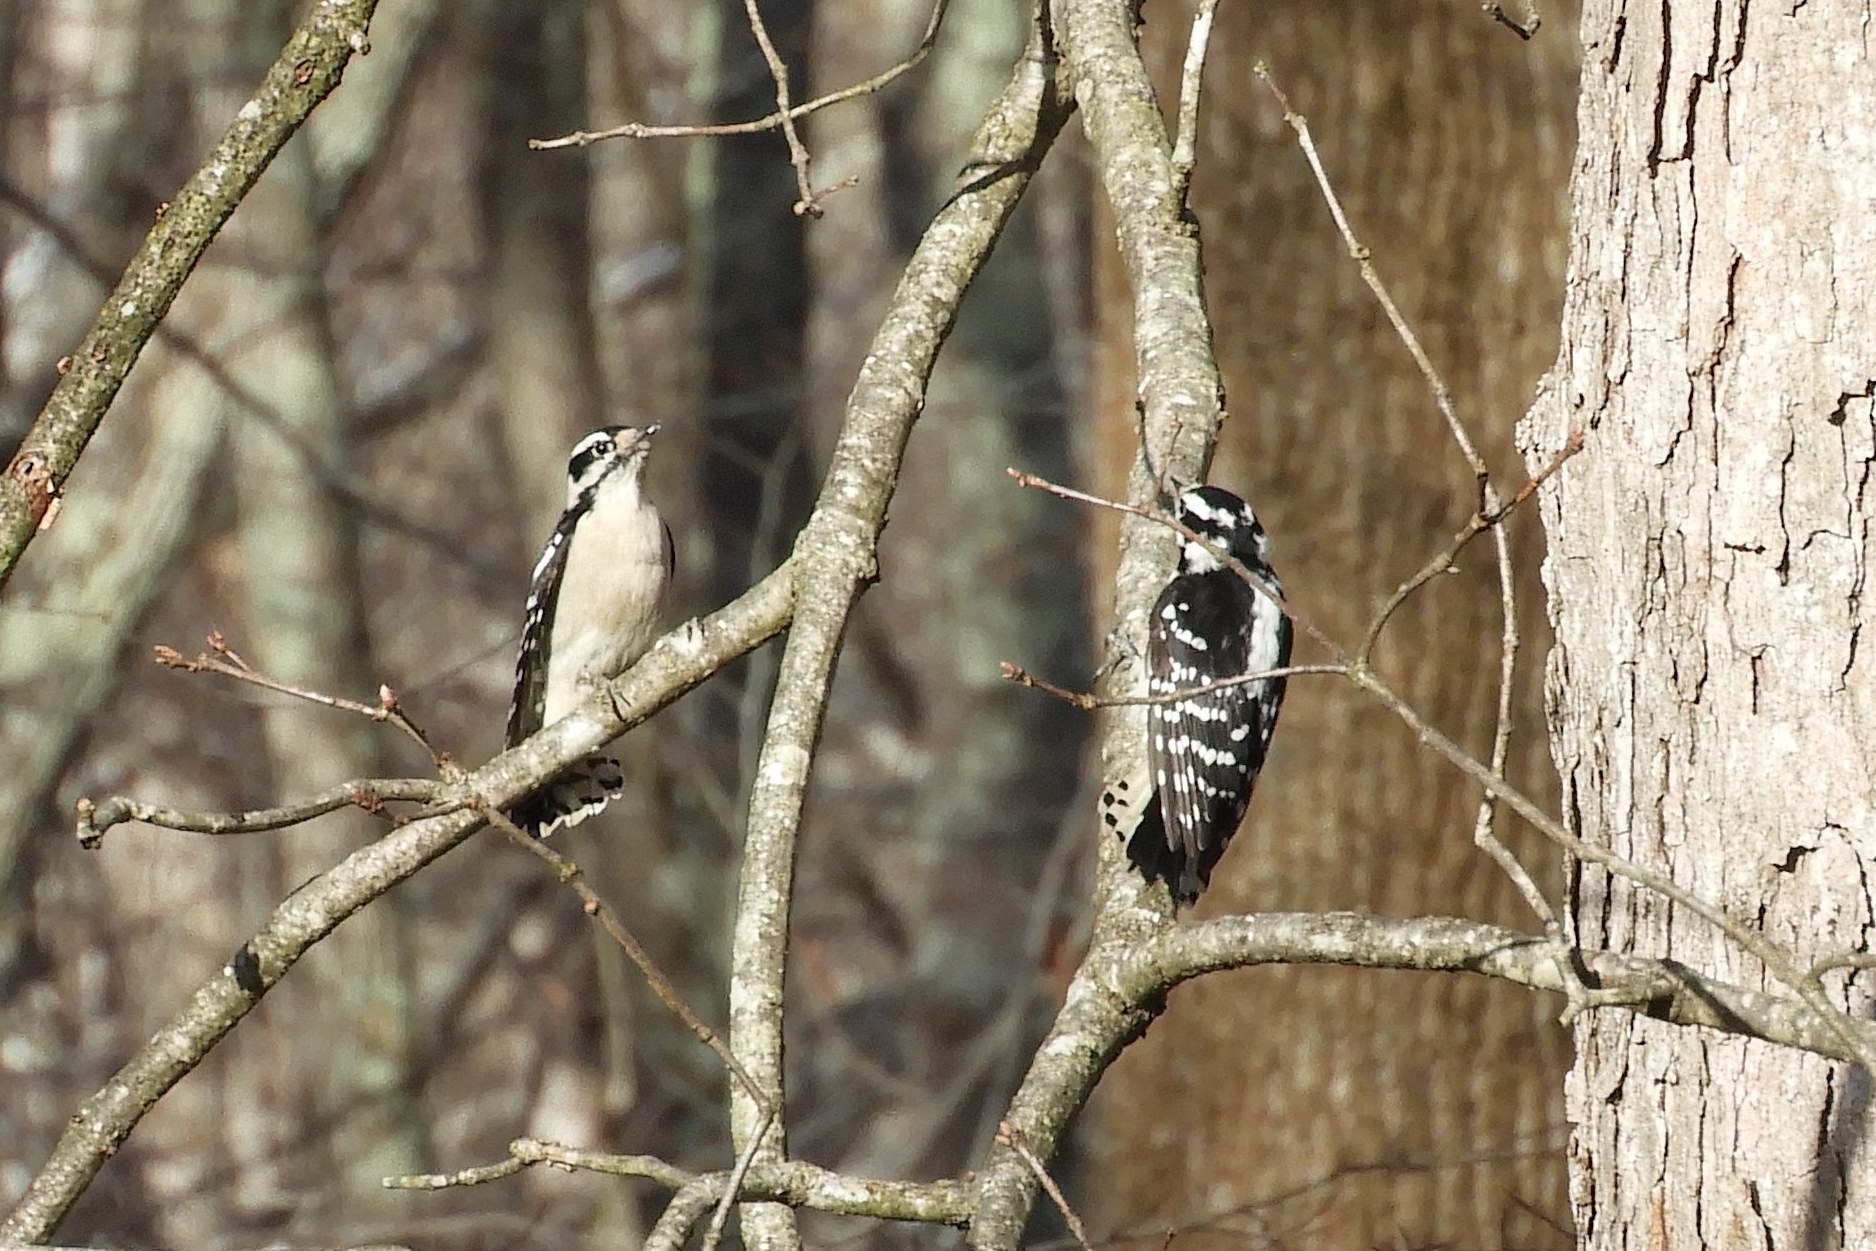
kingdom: Animalia
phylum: Chordata
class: Aves
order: Piciformes
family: Picidae
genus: Dryobates
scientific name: Dryobates pubescens
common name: Downy woodpecker
